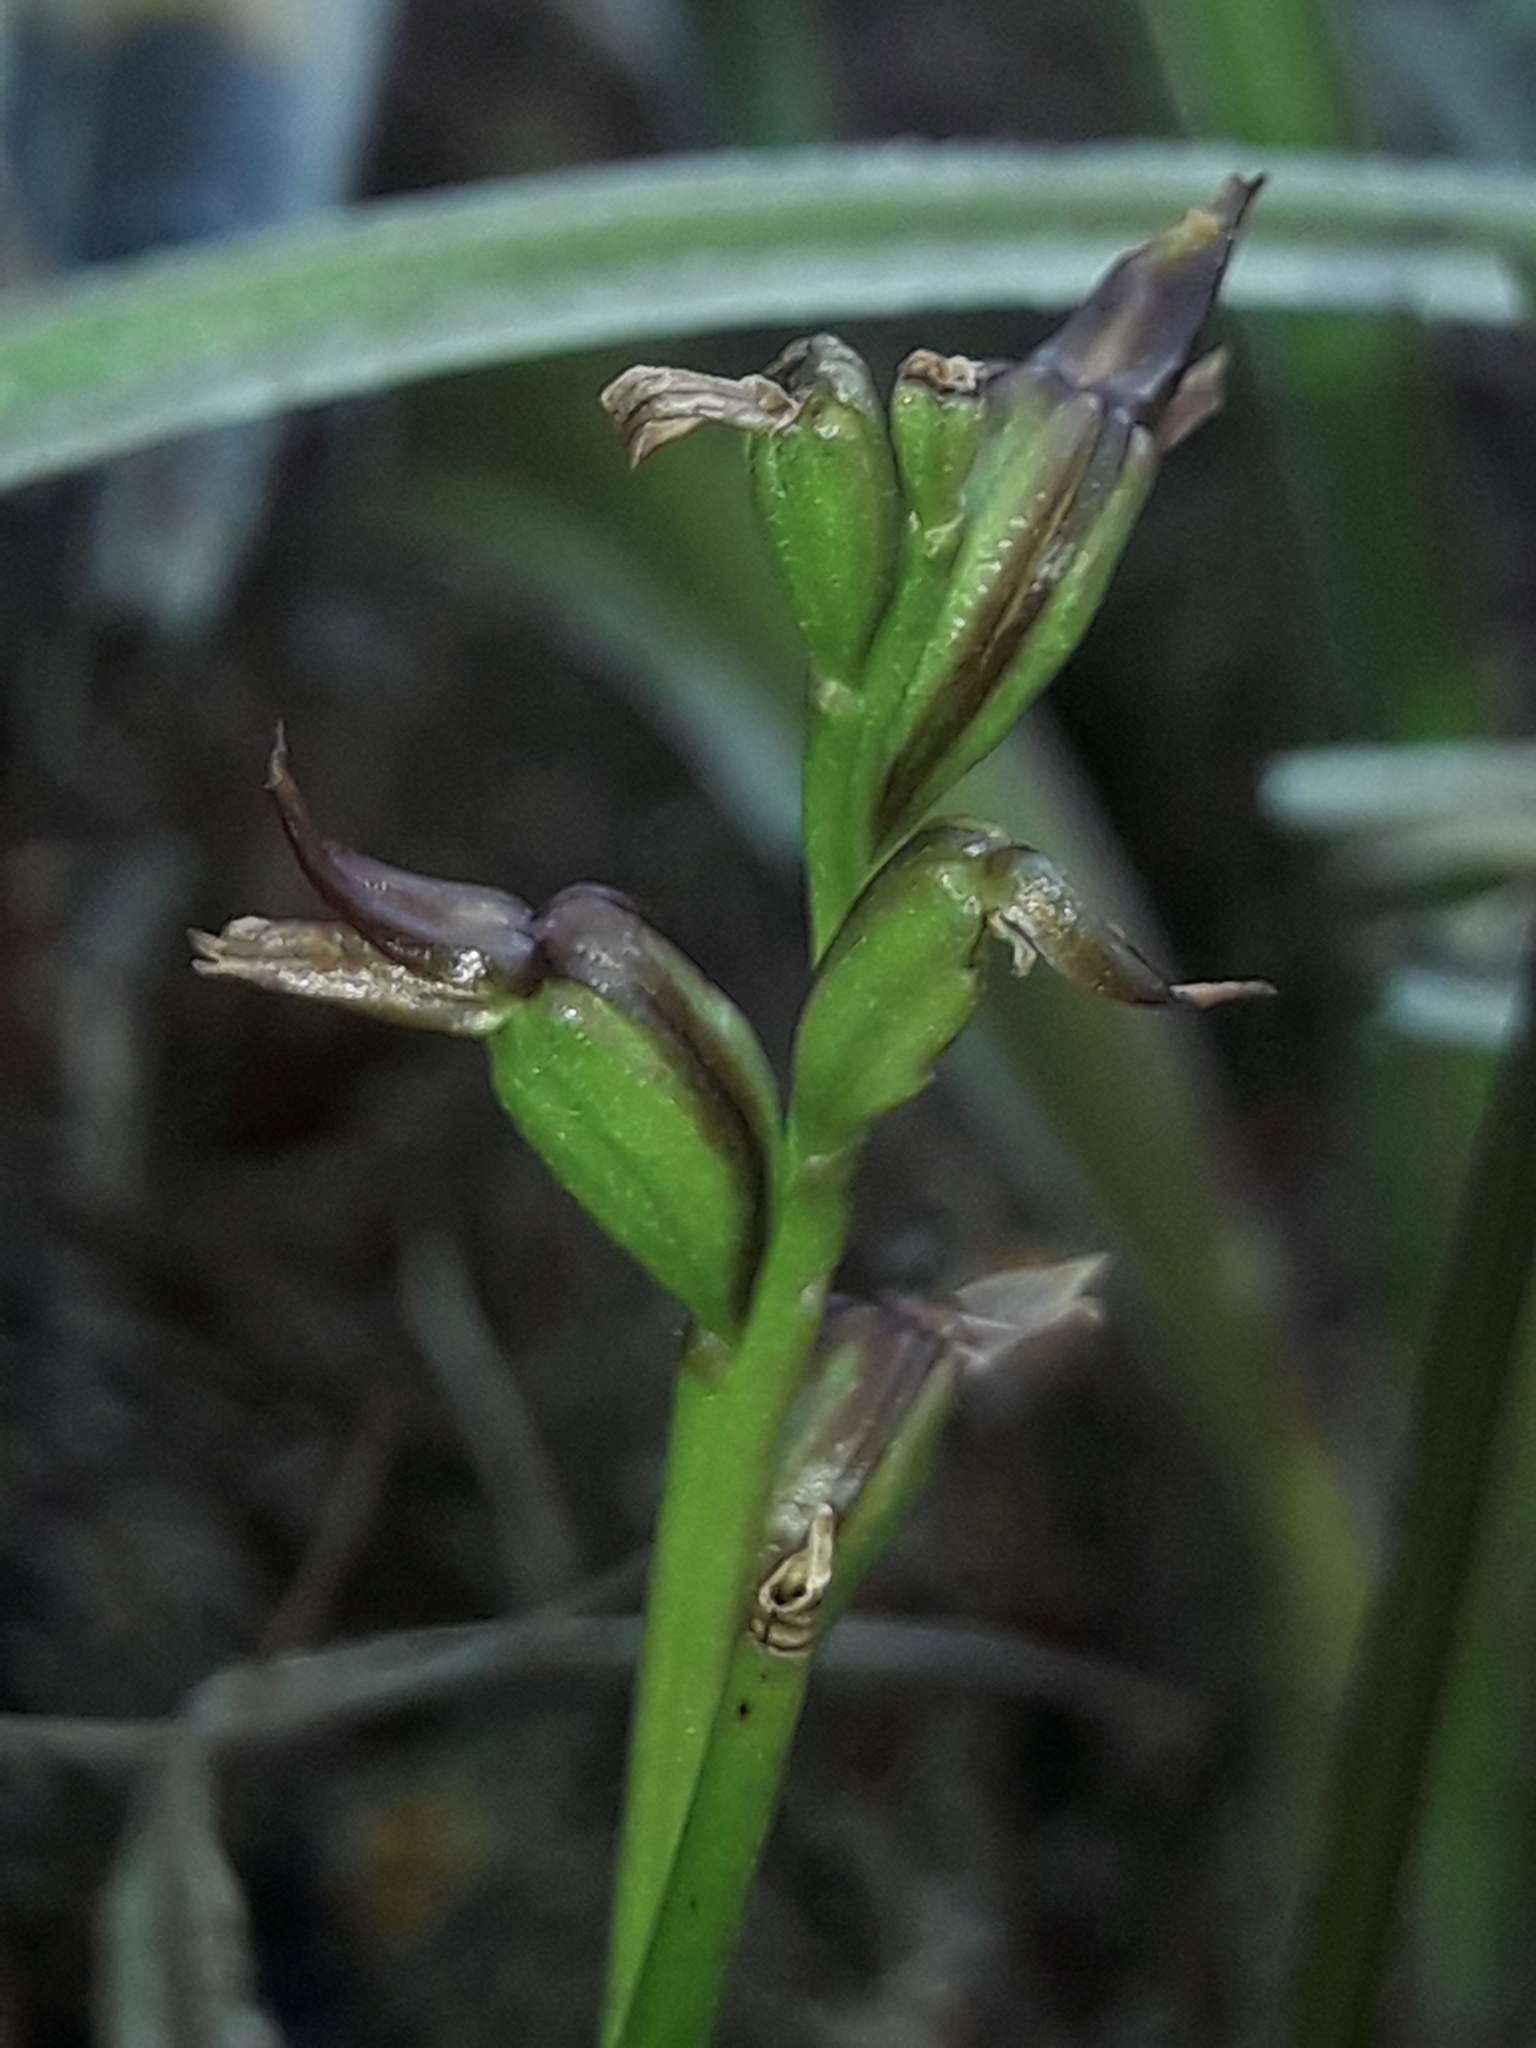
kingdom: Plantae
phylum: Tracheophyta
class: Liliopsida
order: Asparagales
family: Orchidaceae
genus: Prasophyllum
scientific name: Prasophyllum colensoi
